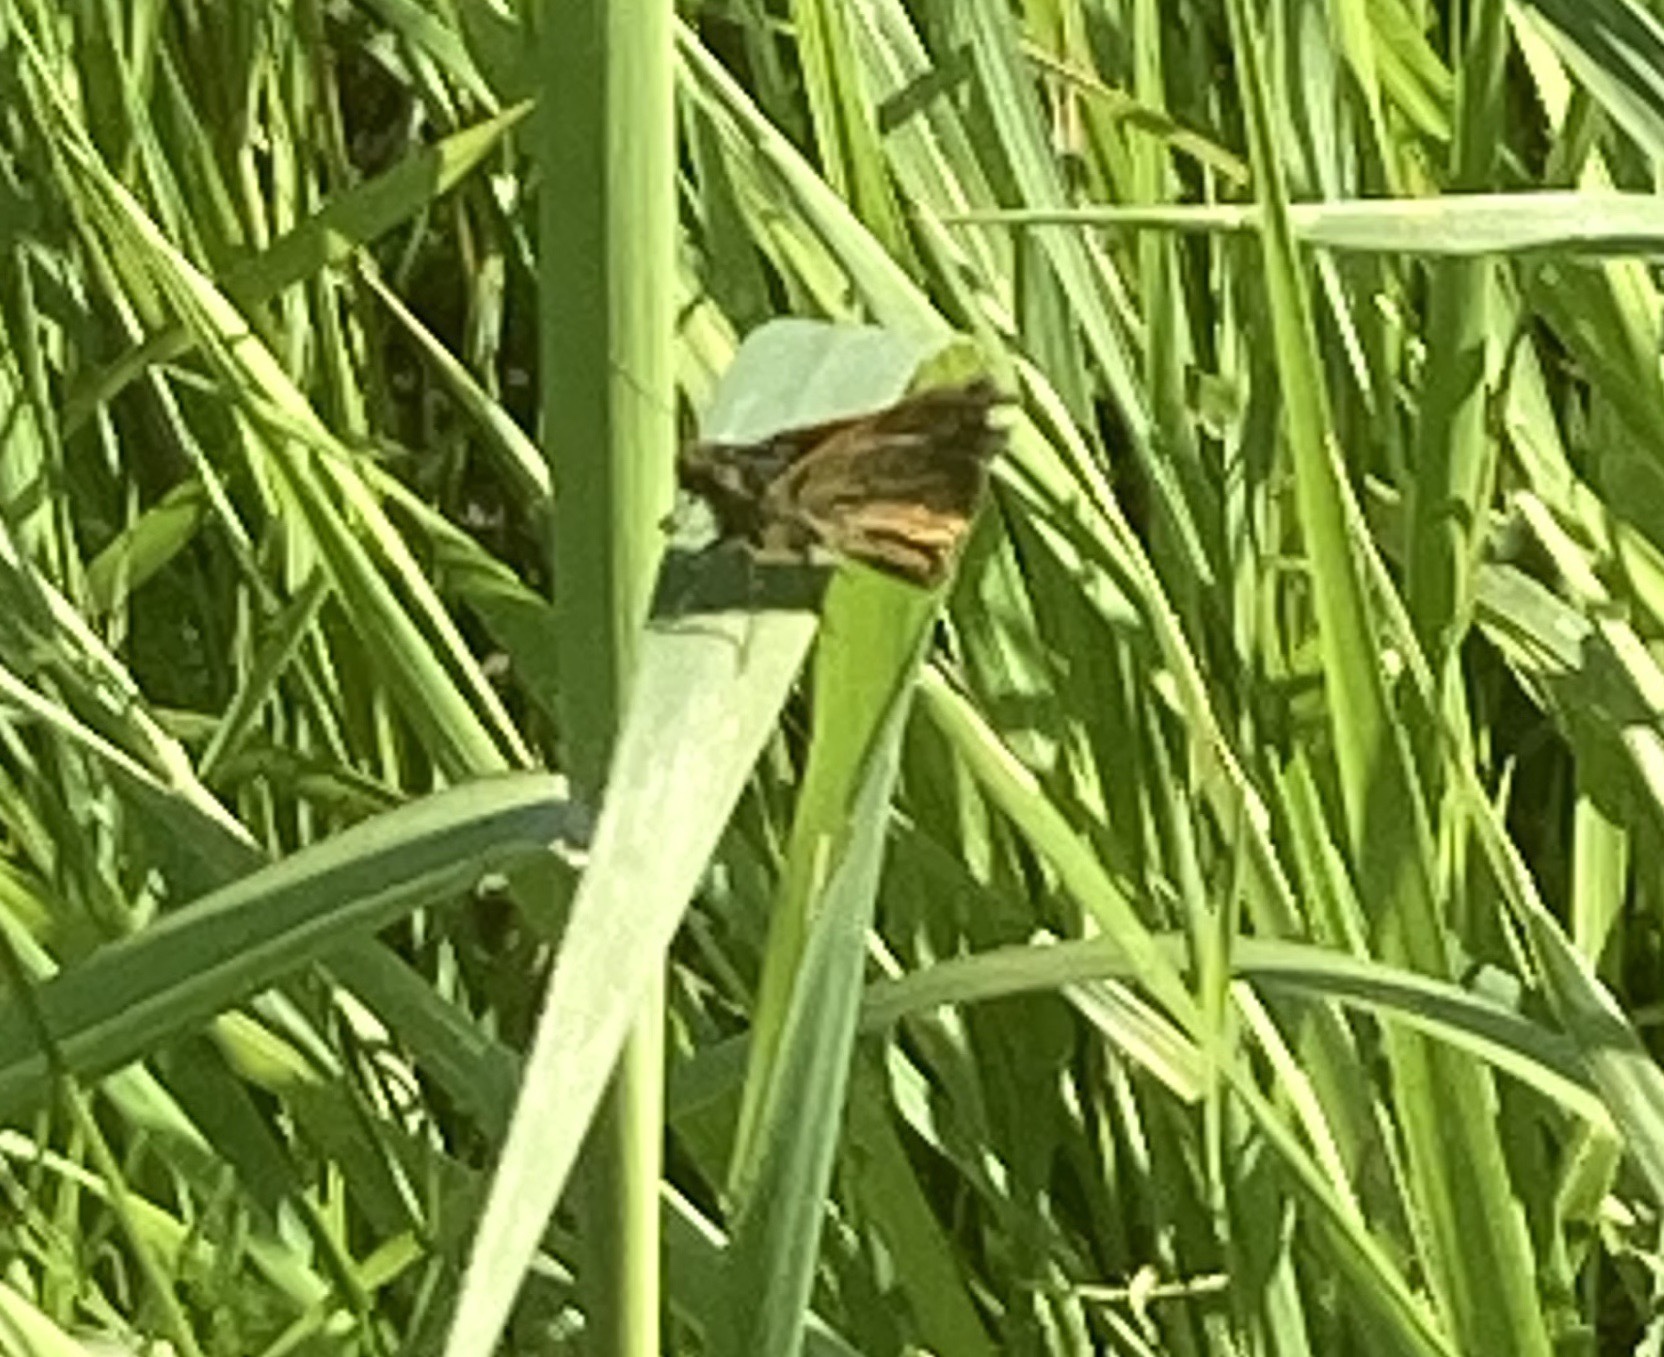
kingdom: Animalia
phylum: Arthropoda
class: Insecta
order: Lepidoptera
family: Hesperiidae
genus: Ochlodes
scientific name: Ochlodes venata
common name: Large skipper
